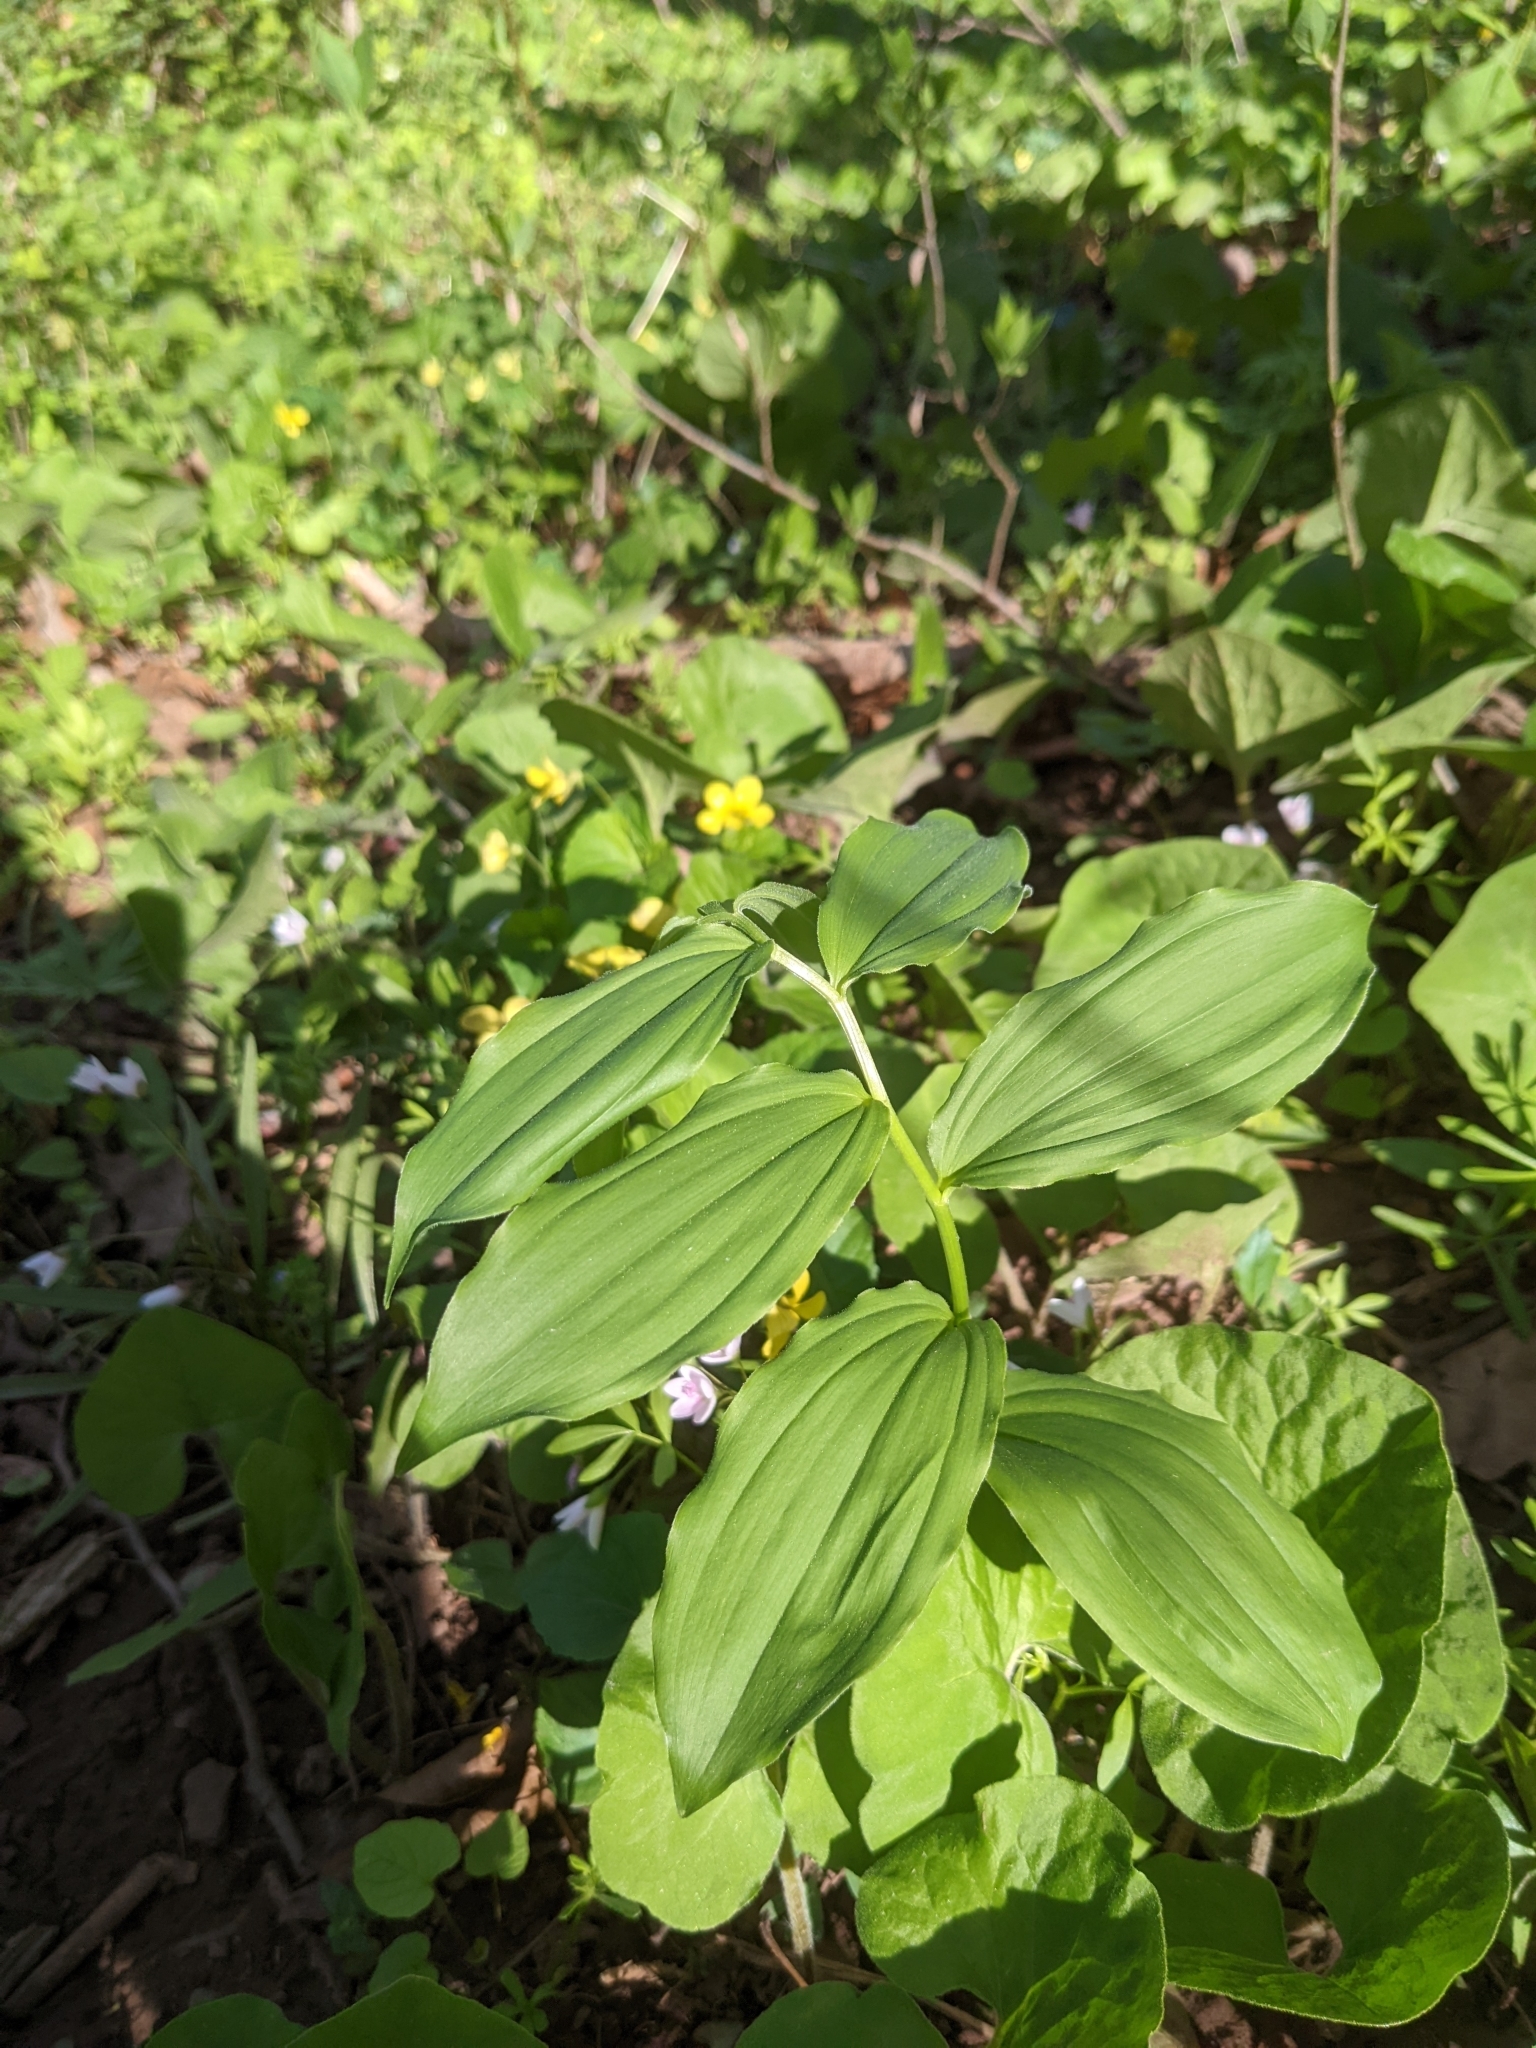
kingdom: Plantae
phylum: Tracheophyta
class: Liliopsida
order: Asparagales
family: Asparagaceae
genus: Maianthemum
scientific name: Maianthemum racemosum
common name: False spikenard
